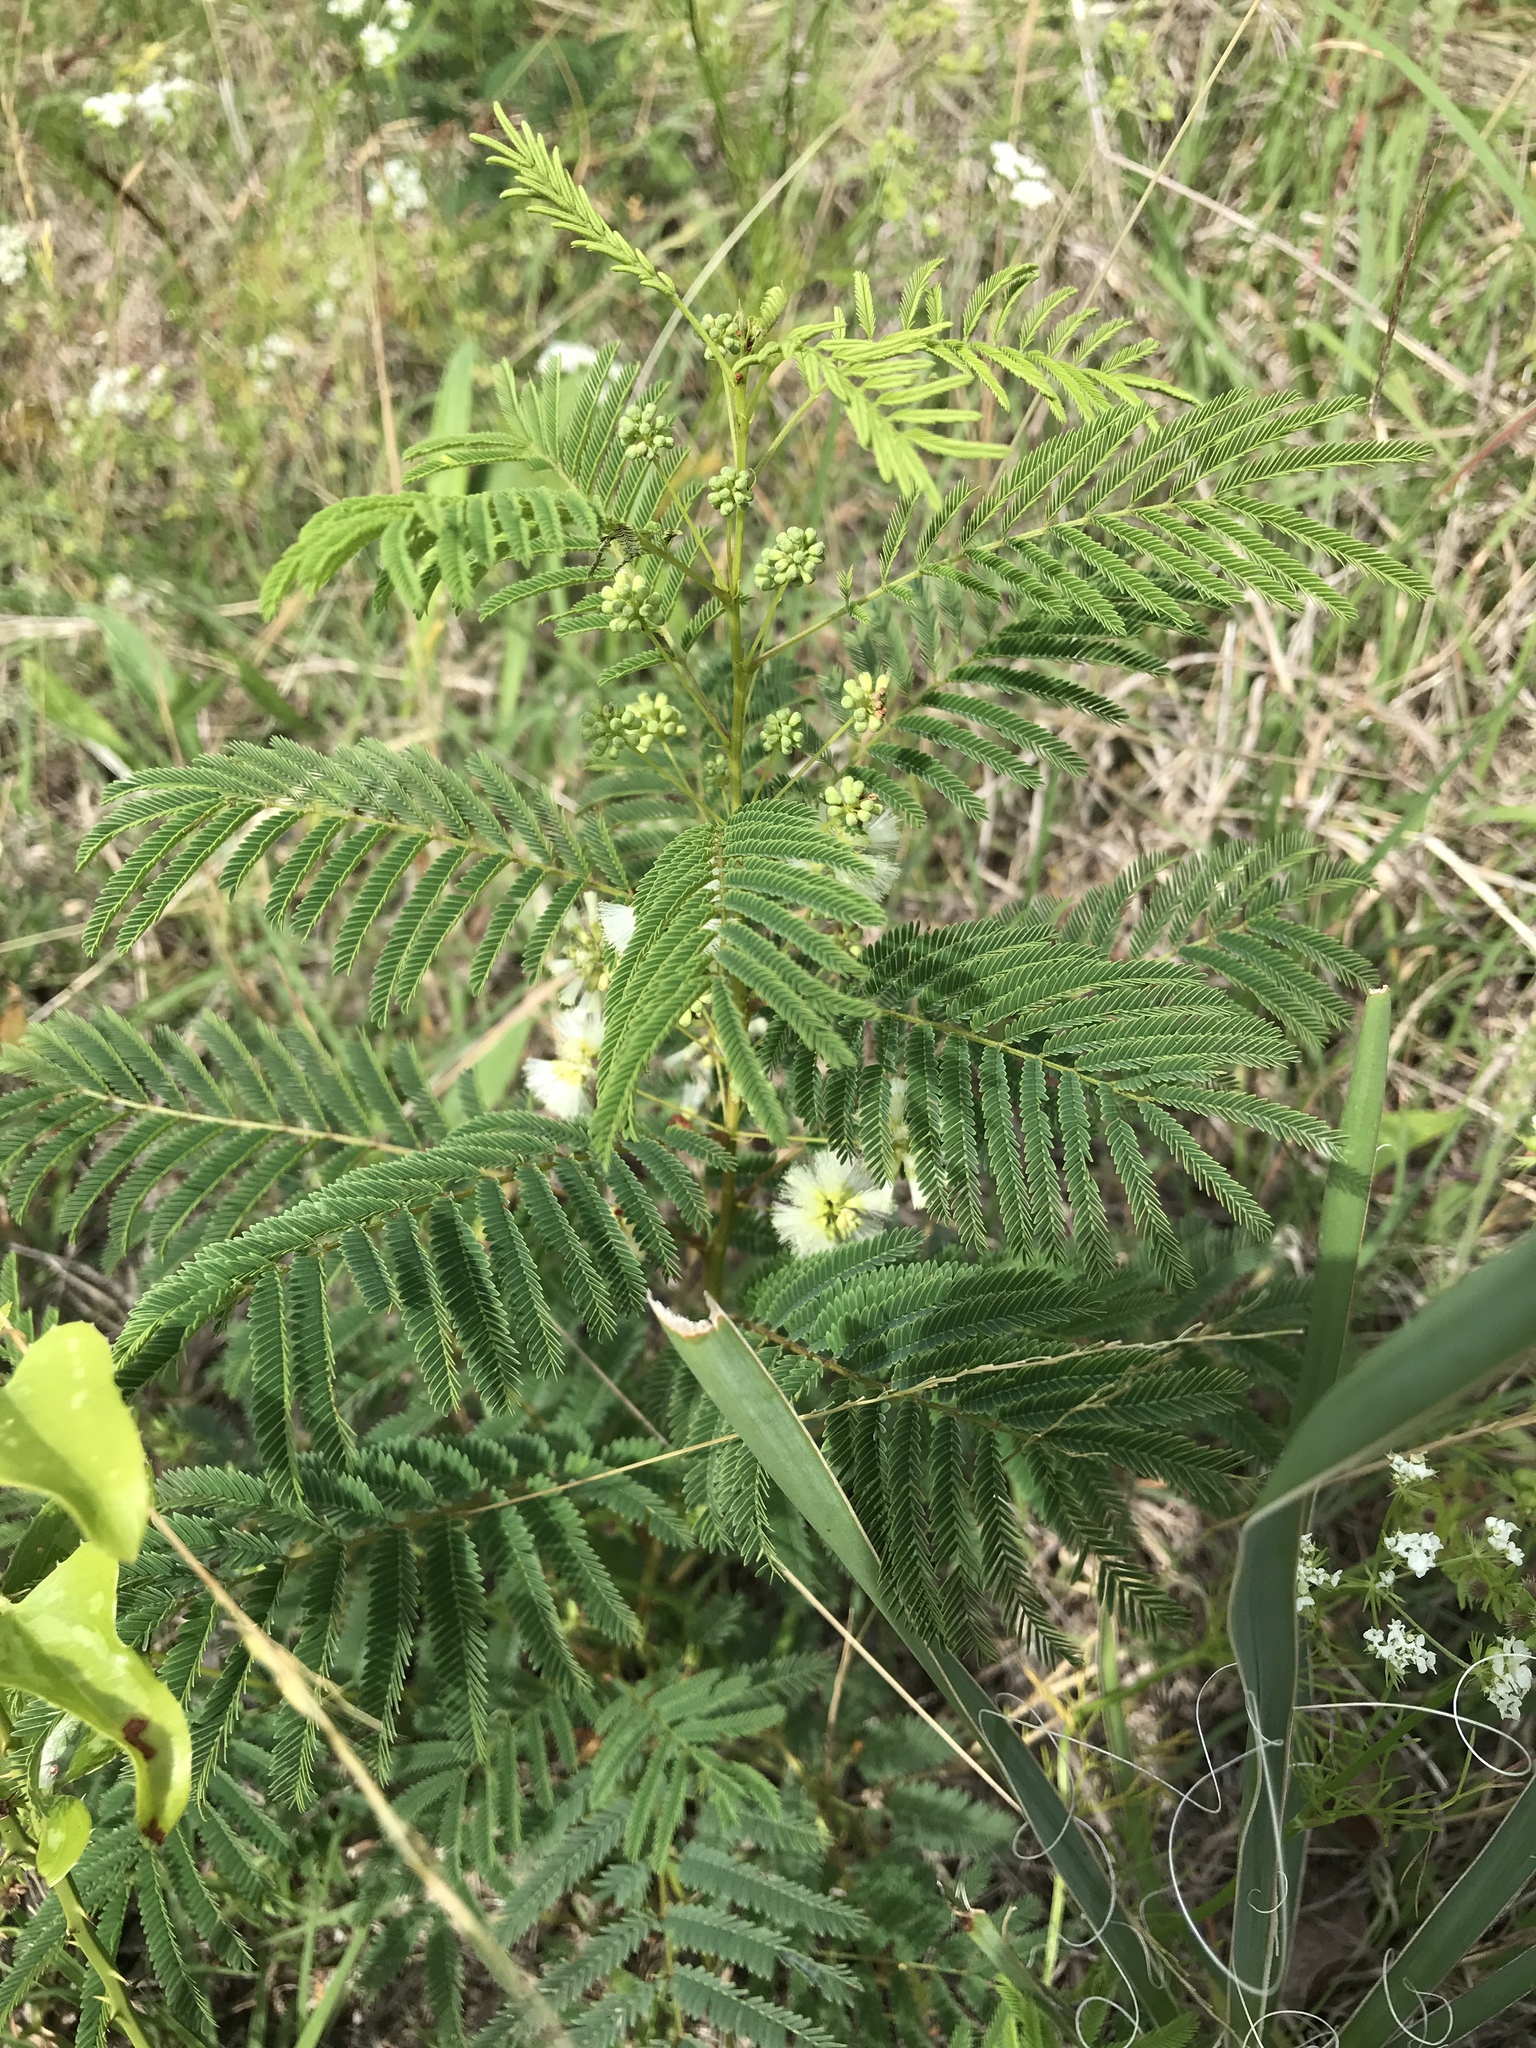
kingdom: Plantae
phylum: Tracheophyta
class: Magnoliopsida
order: Fabales
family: Fabaceae
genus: Acaciella
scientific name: Acaciella angustissima
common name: Prairie acacia
